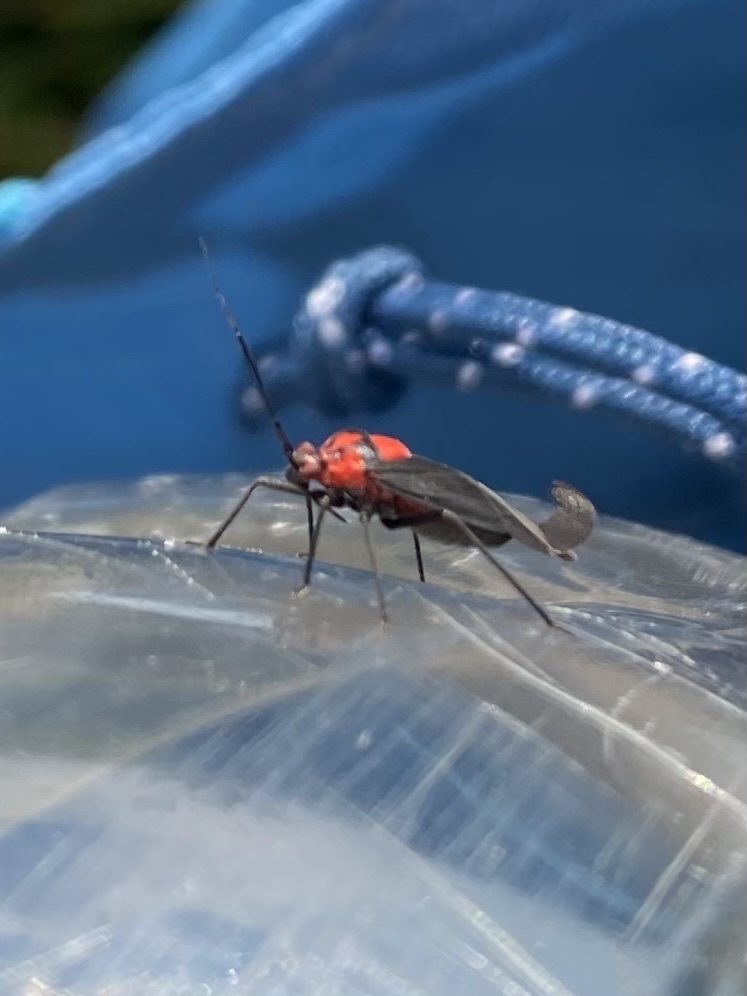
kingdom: Animalia
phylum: Arthropoda
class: Insecta
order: Hemiptera
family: Miridae
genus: Capsodes
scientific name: Capsodes bicolor
